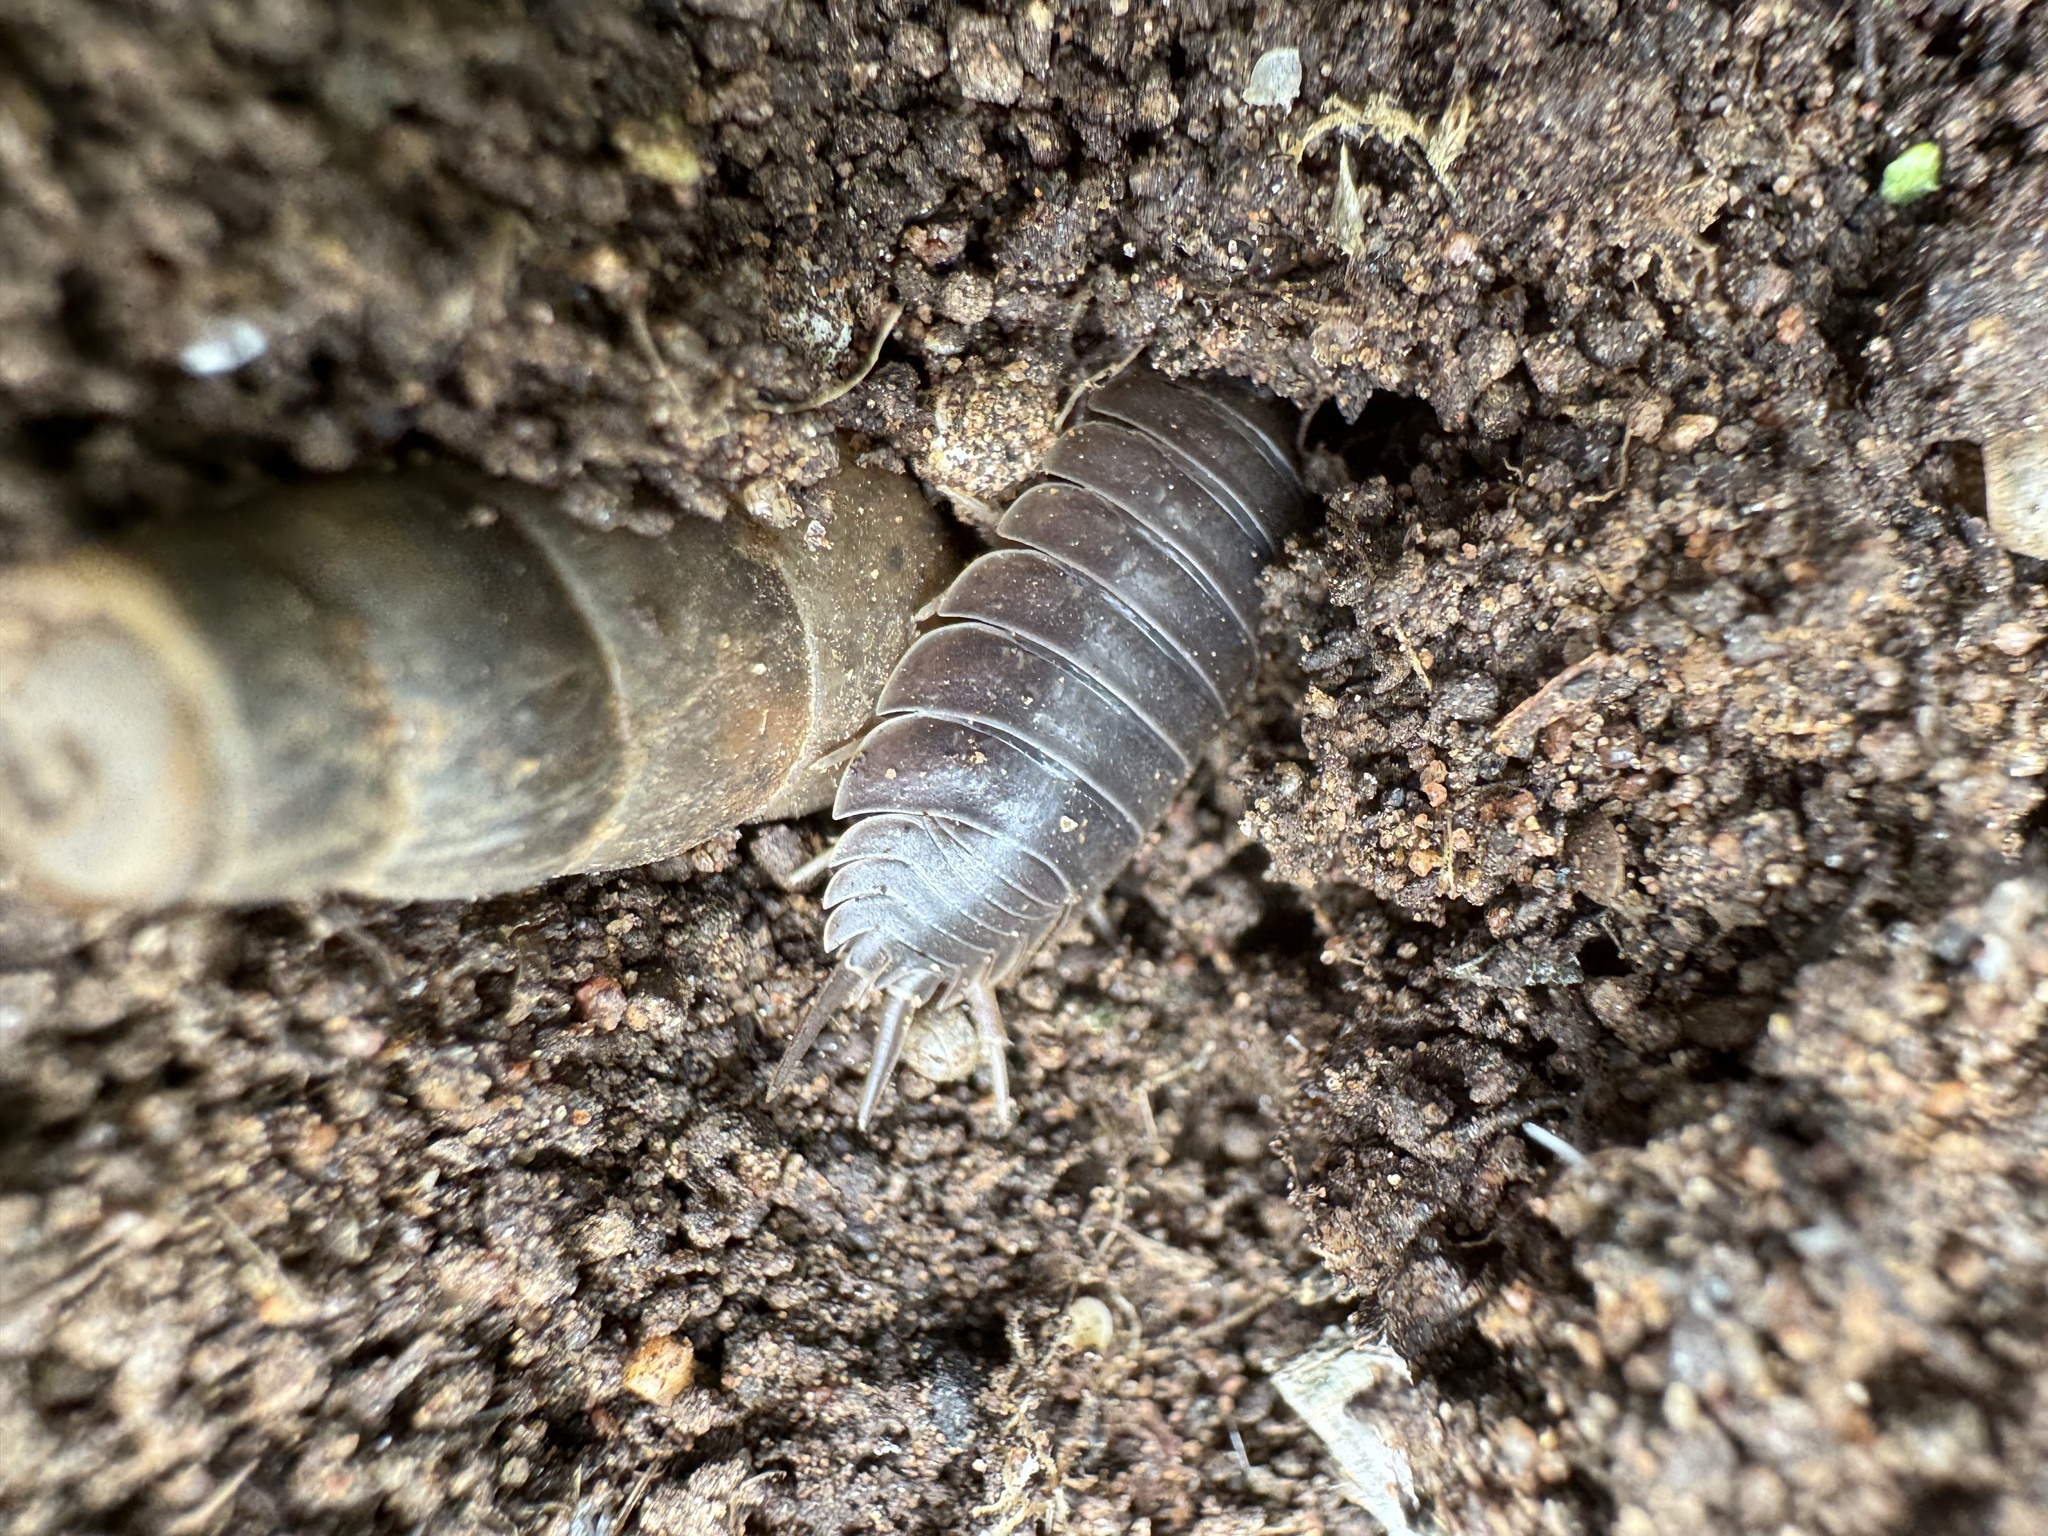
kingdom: Animalia
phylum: Arthropoda
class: Malacostraca
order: Isopoda
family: Porcellionidae
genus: Porcellio
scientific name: Porcellio laevis
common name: Swift woodlouse
